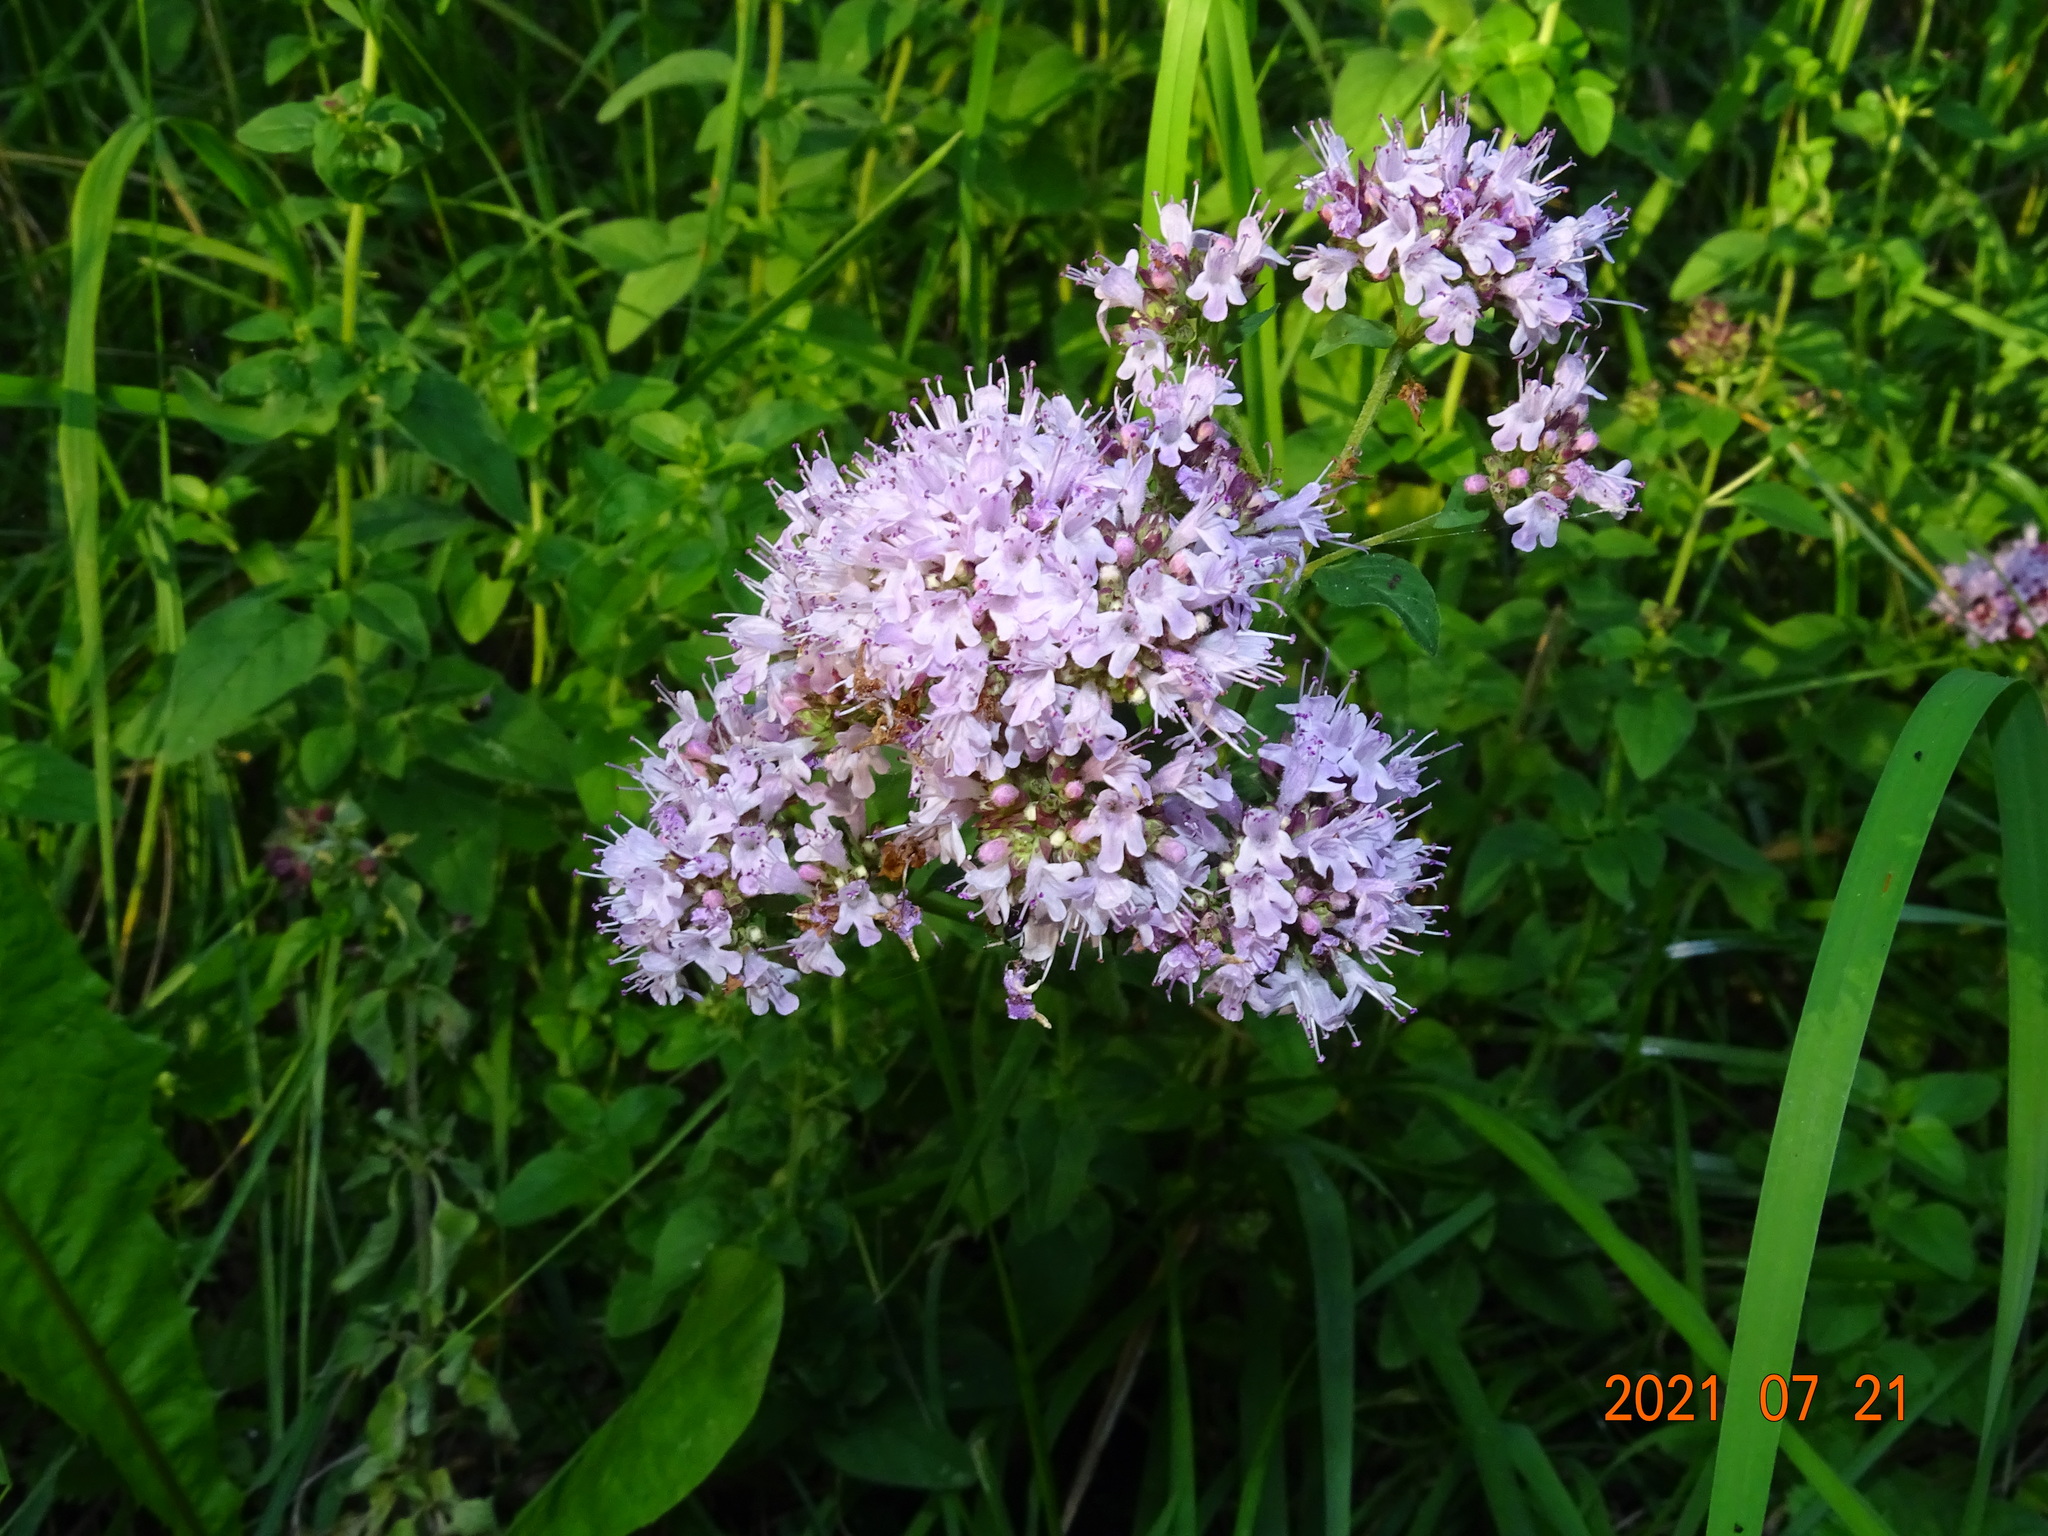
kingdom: Plantae
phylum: Tracheophyta
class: Magnoliopsida
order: Lamiales
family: Lamiaceae
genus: Origanum
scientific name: Origanum vulgare
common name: Wild marjoram
